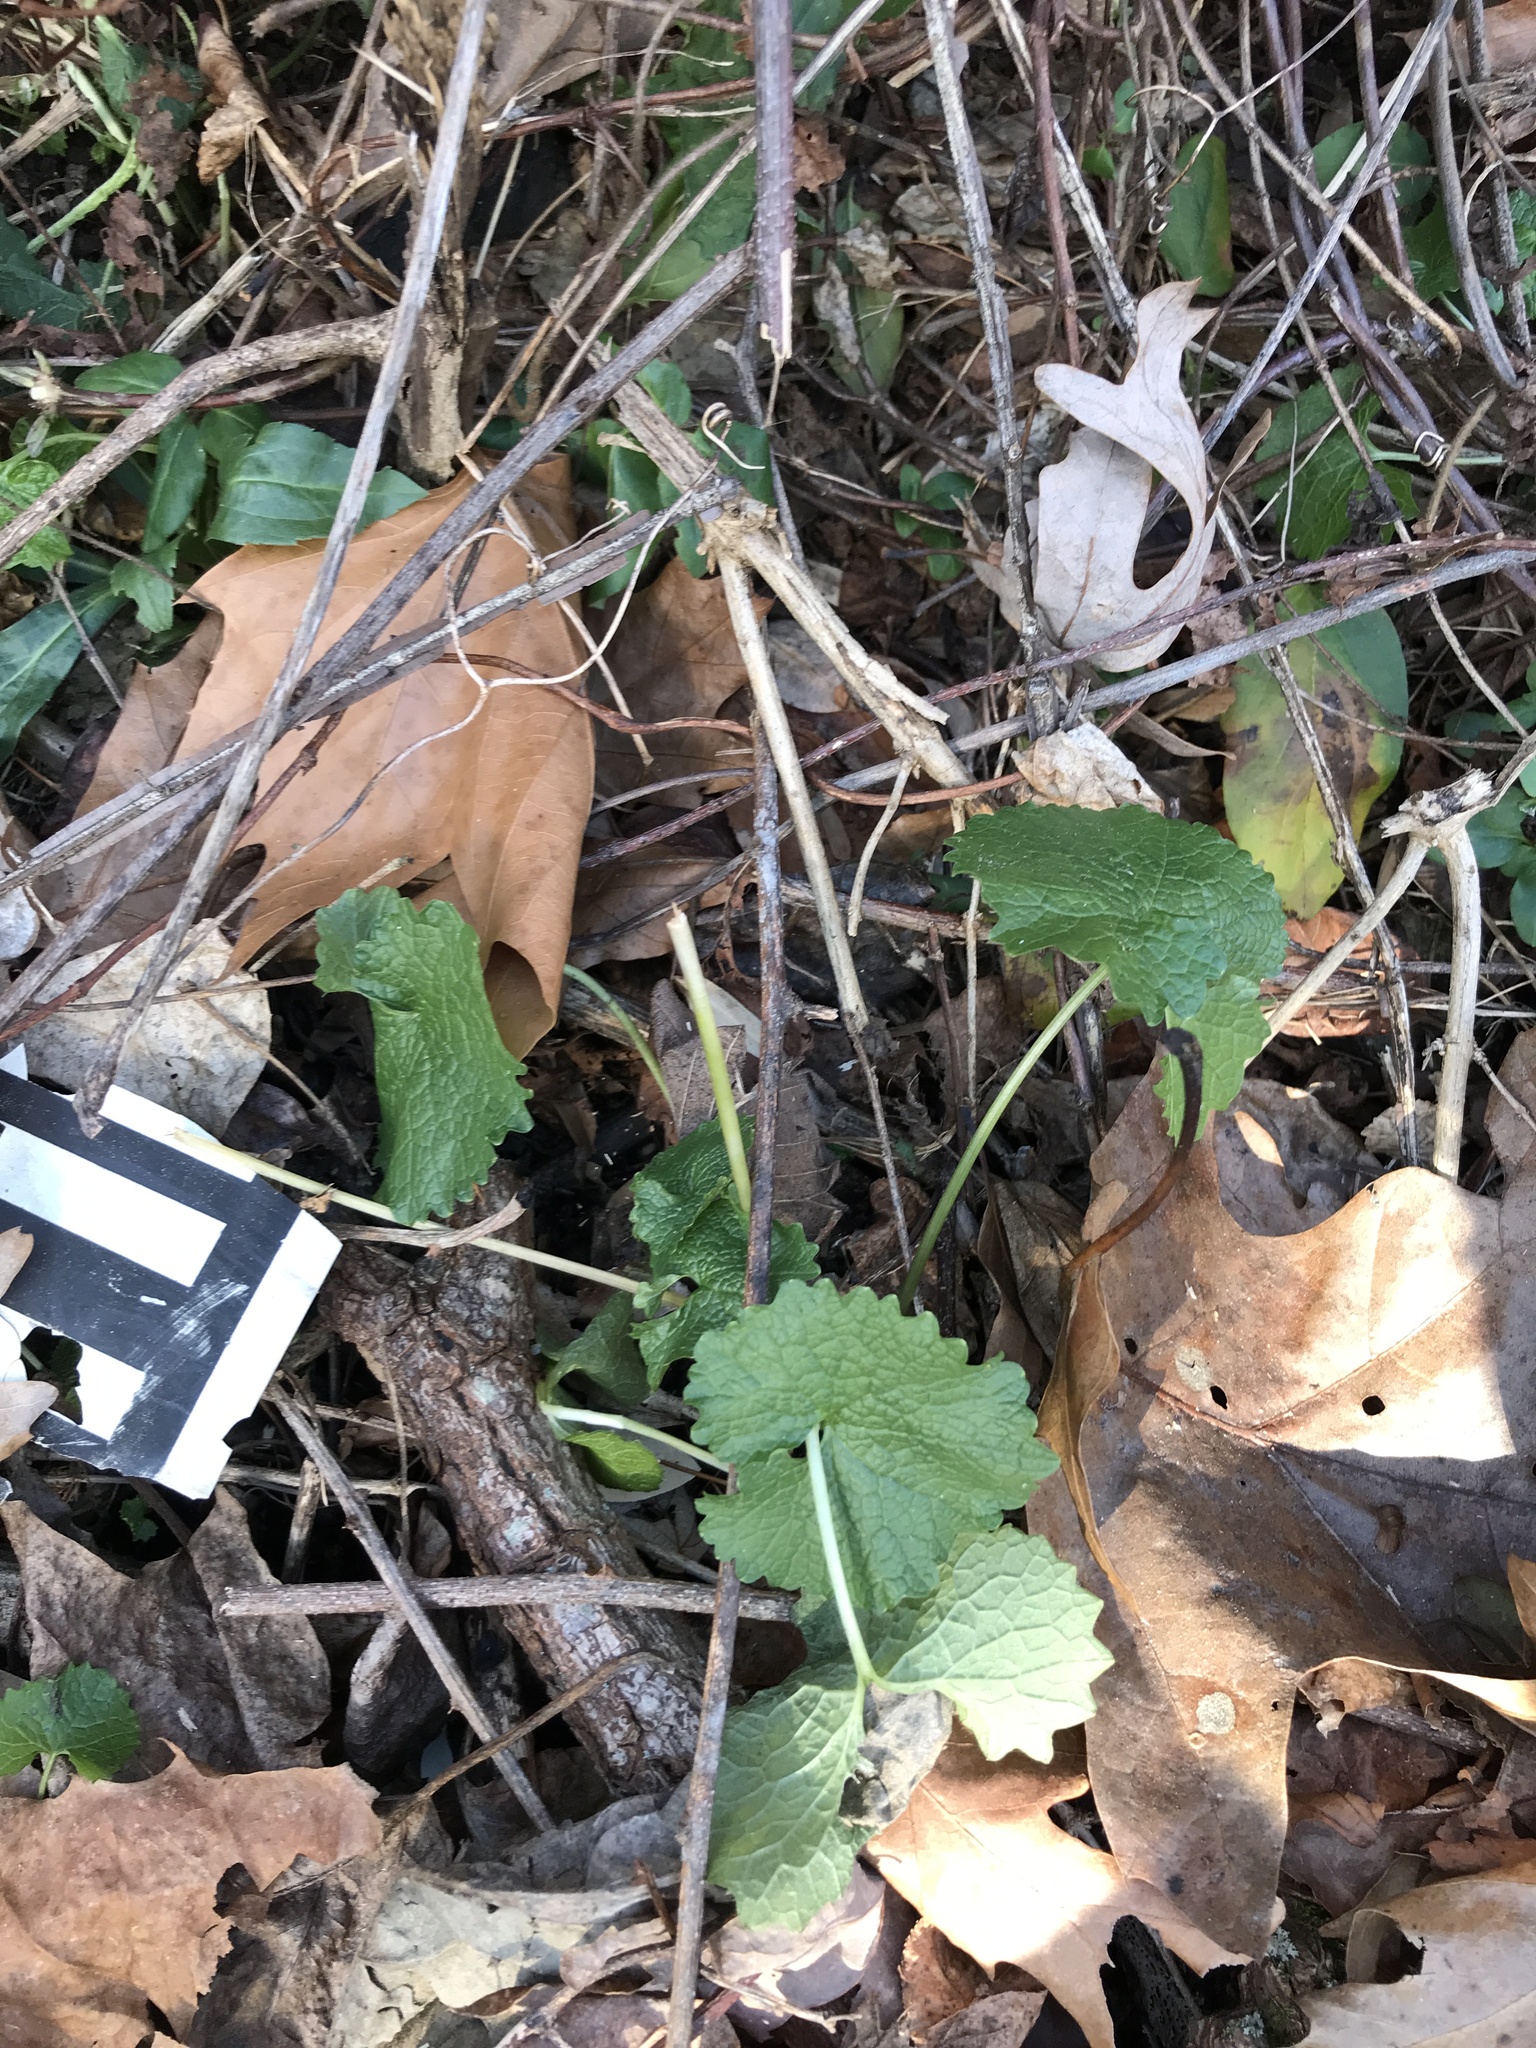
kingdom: Plantae
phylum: Tracheophyta
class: Magnoliopsida
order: Brassicales
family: Brassicaceae
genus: Alliaria
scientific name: Alliaria petiolata
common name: Garlic mustard
